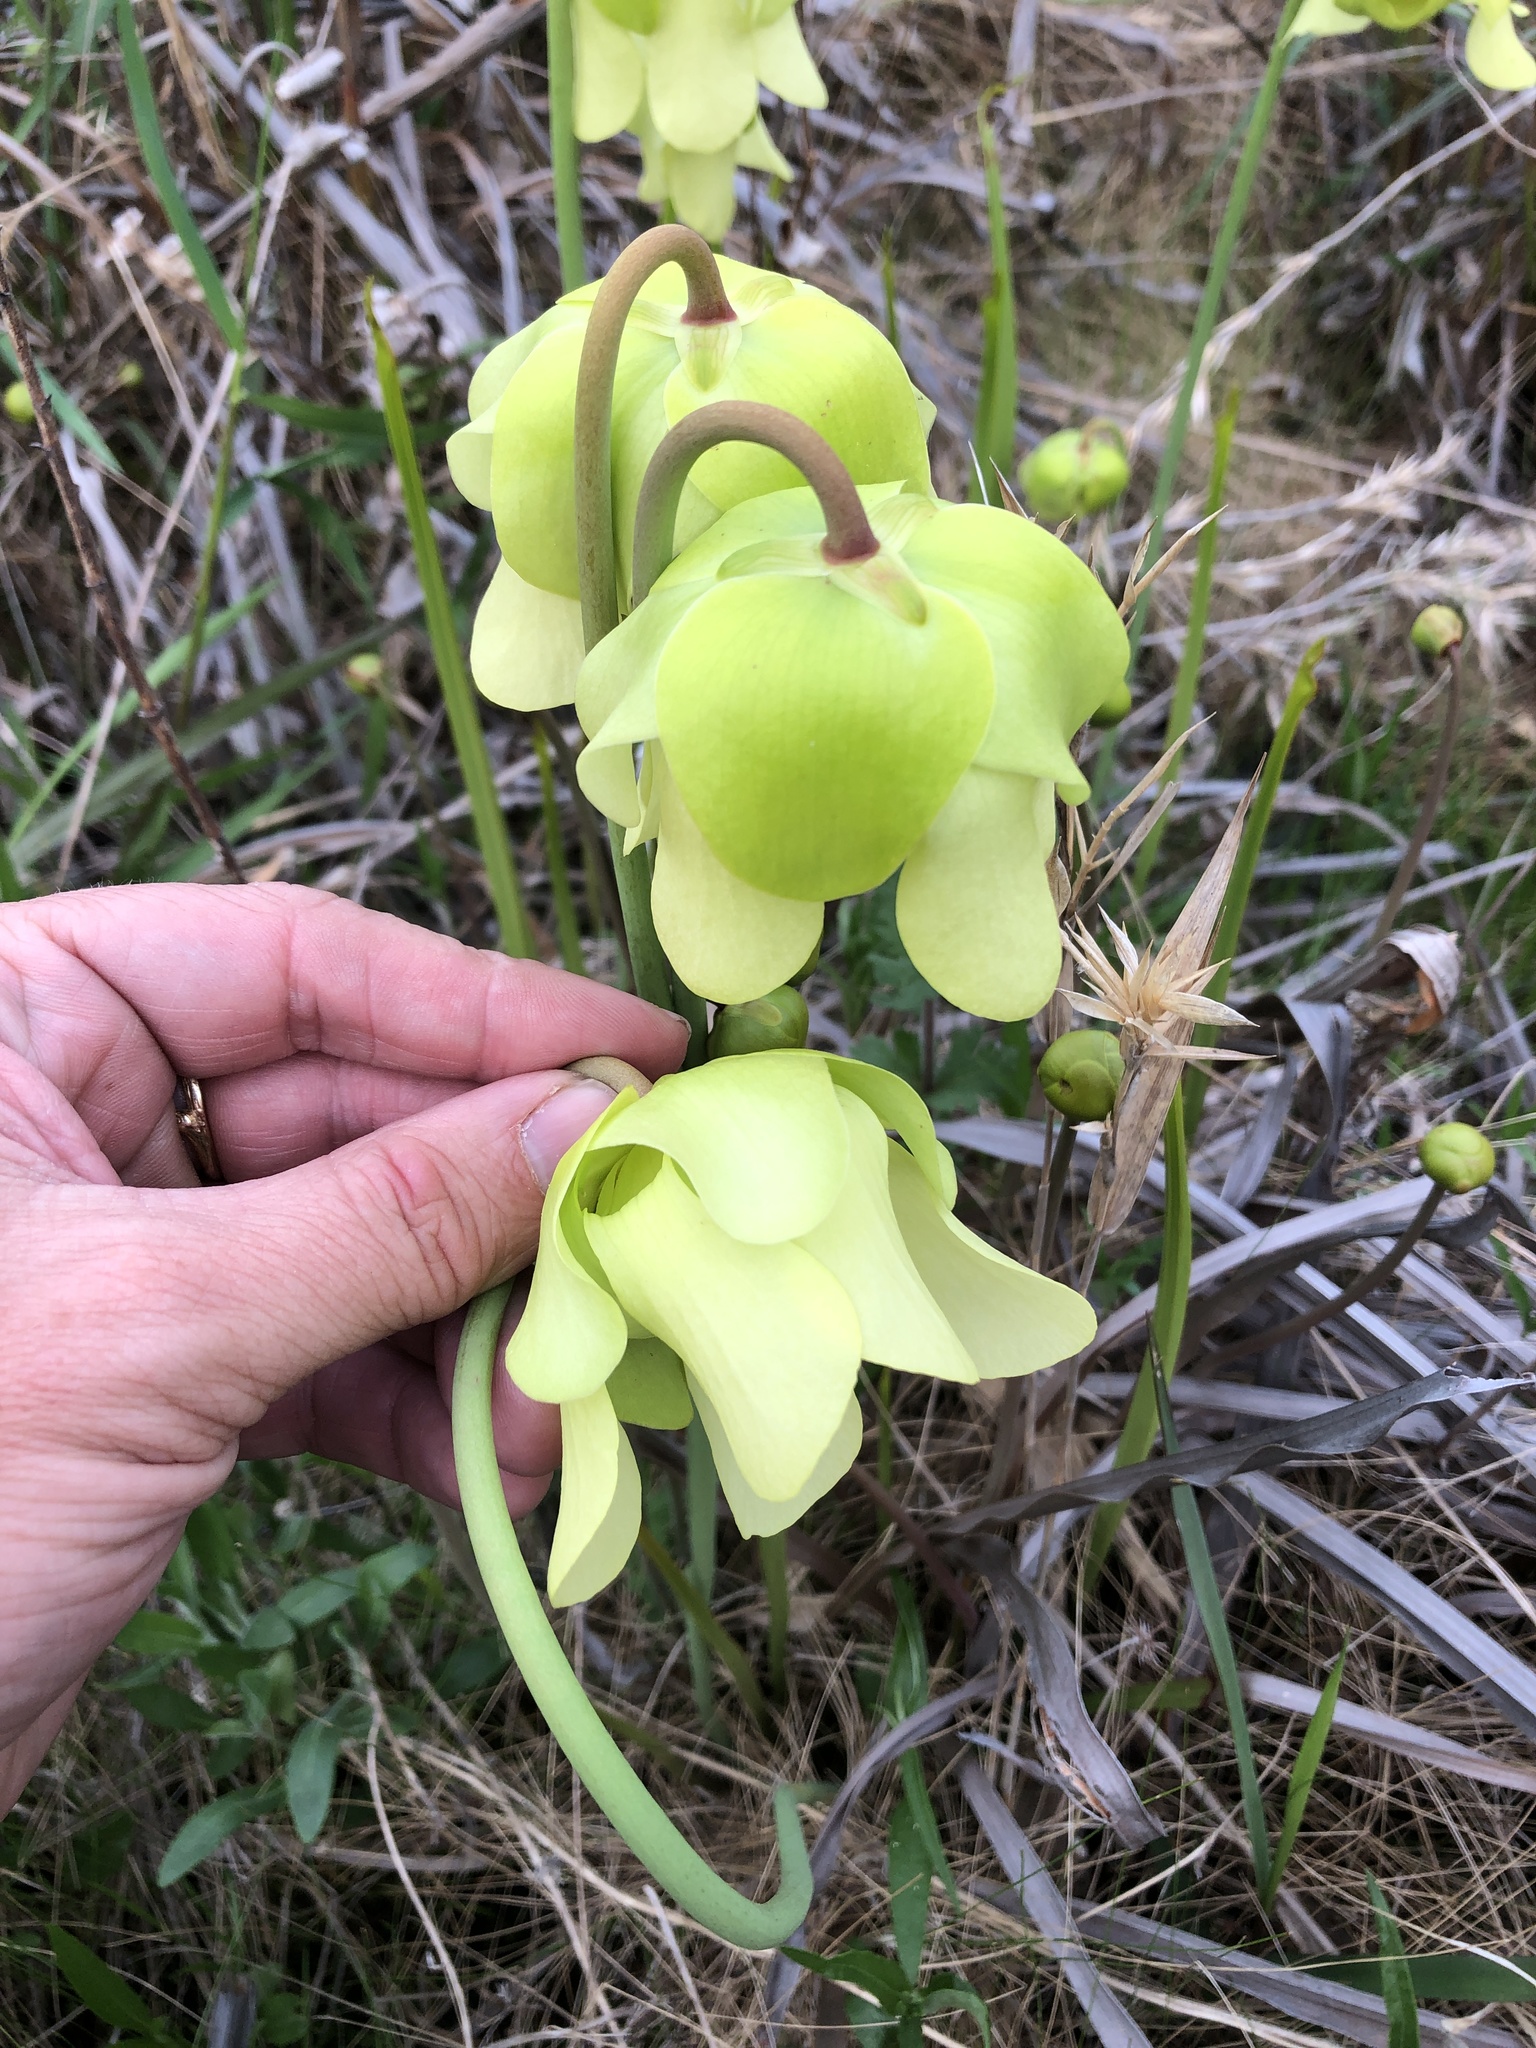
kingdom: Plantae
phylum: Tracheophyta
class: Magnoliopsida
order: Ericales
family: Sarraceniaceae
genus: Sarracenia
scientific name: Sarracenia alata
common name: Yellow trumpets
